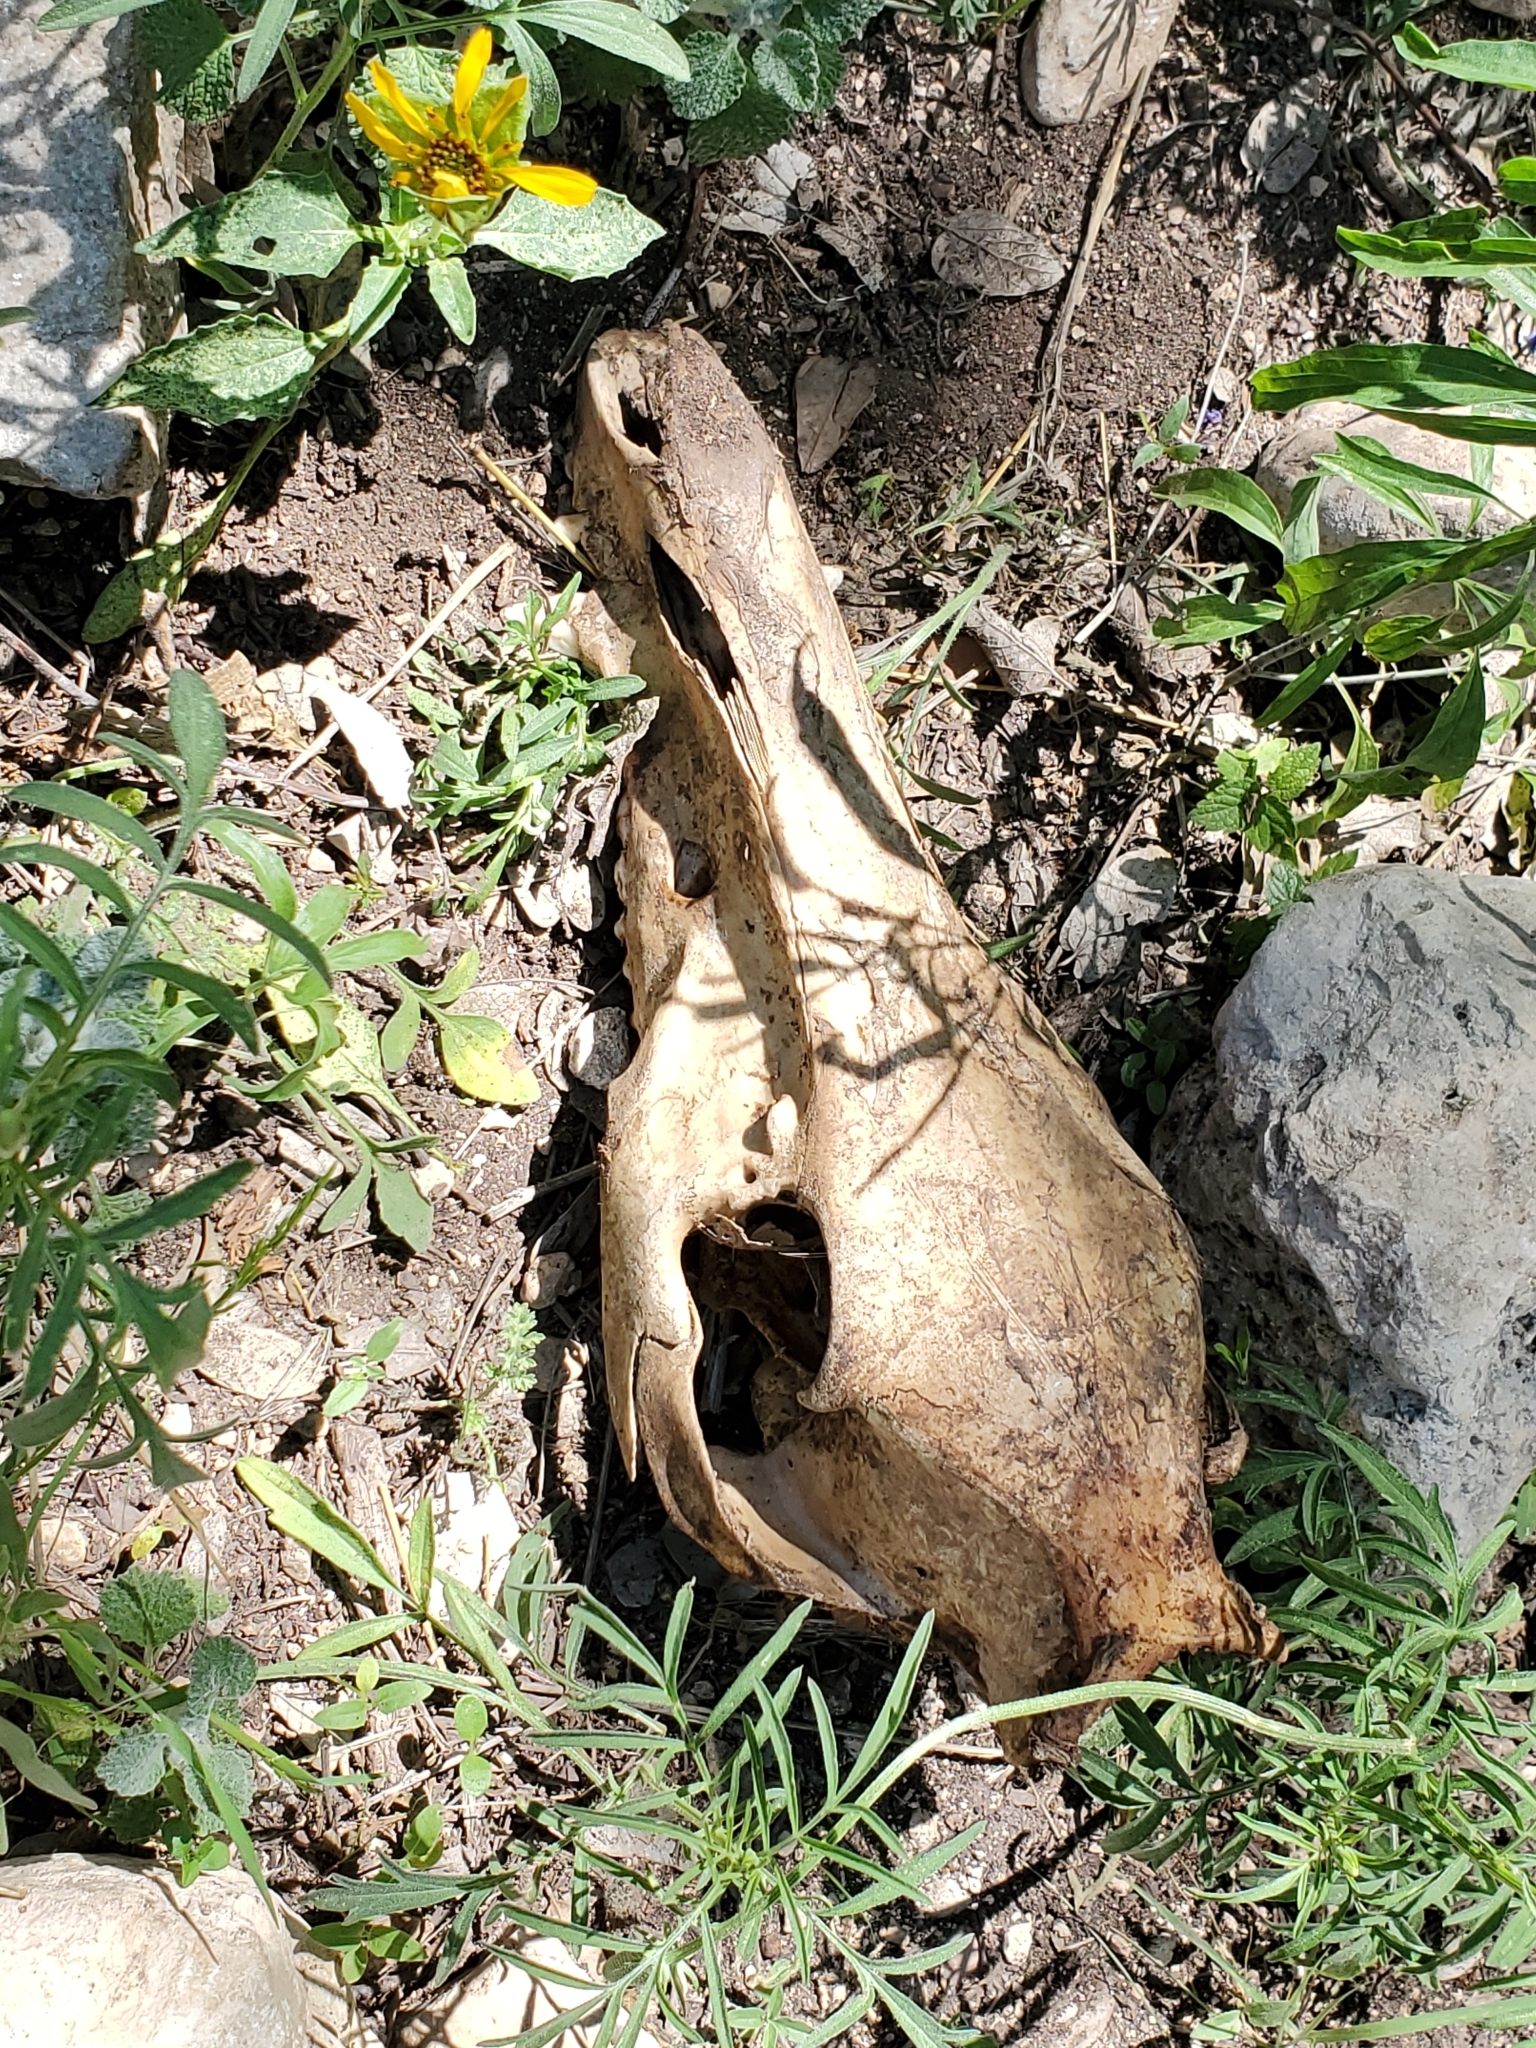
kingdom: Animalia
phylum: Chordata
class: Mammalia
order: Artiodactyla
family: Suidae
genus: Sus
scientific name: Sus scrofa
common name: Wild boar
